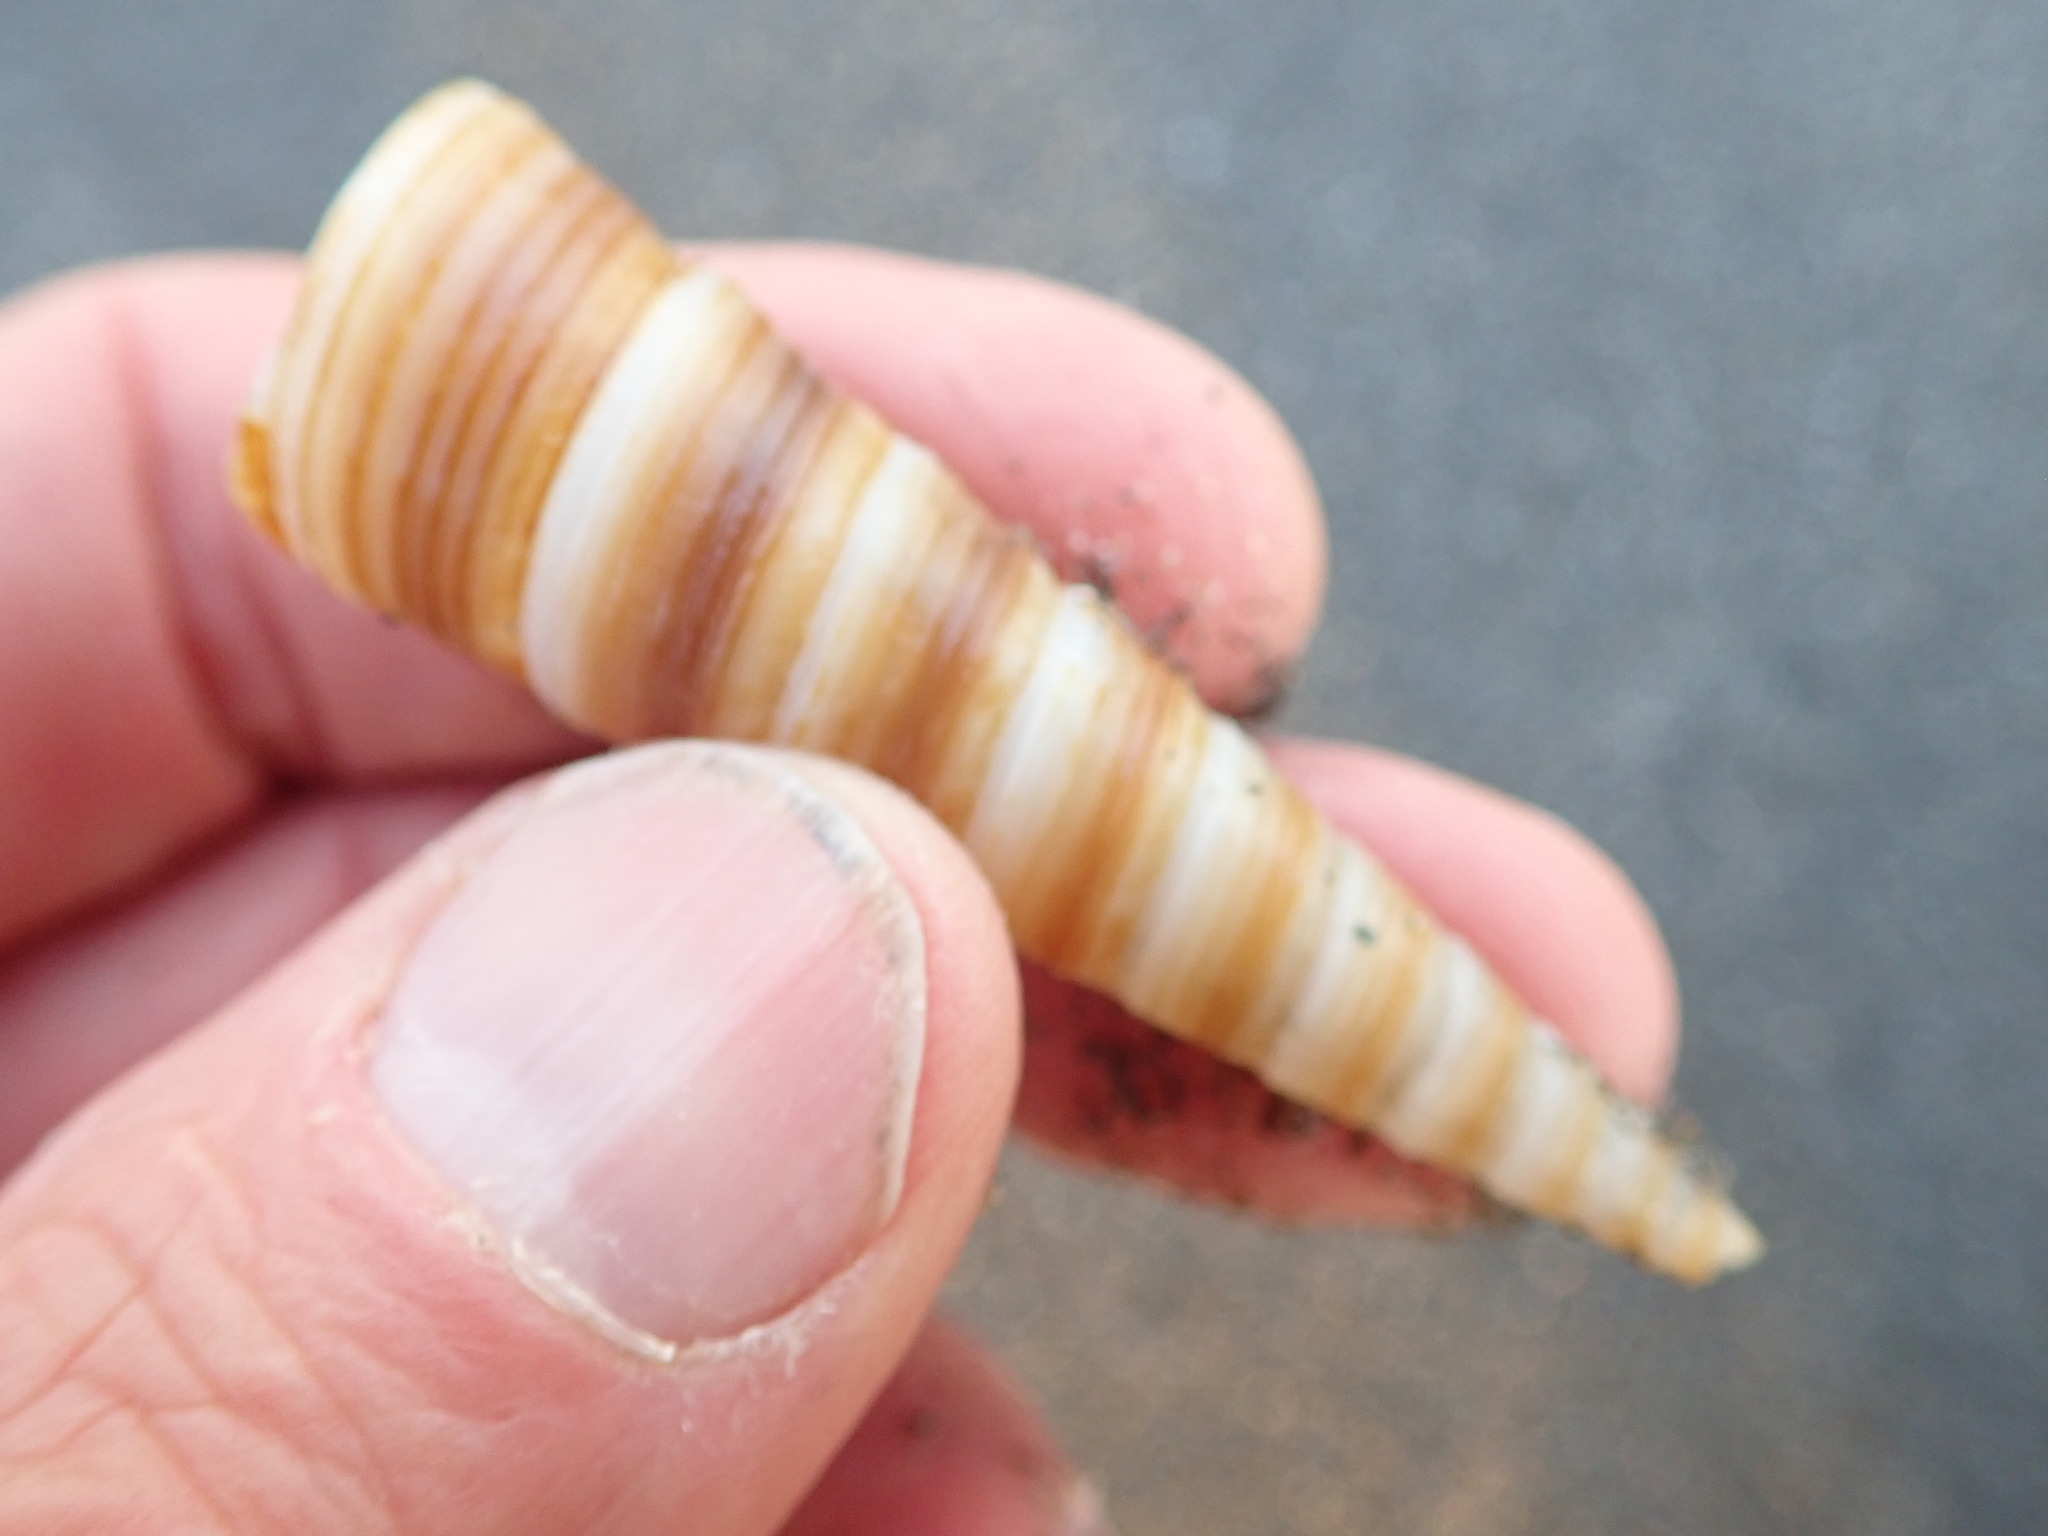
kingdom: Animalia
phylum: Mollusca
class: Gastropoda
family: Turritellidae
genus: Zeacolpus
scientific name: Zeacolpus vittatus
